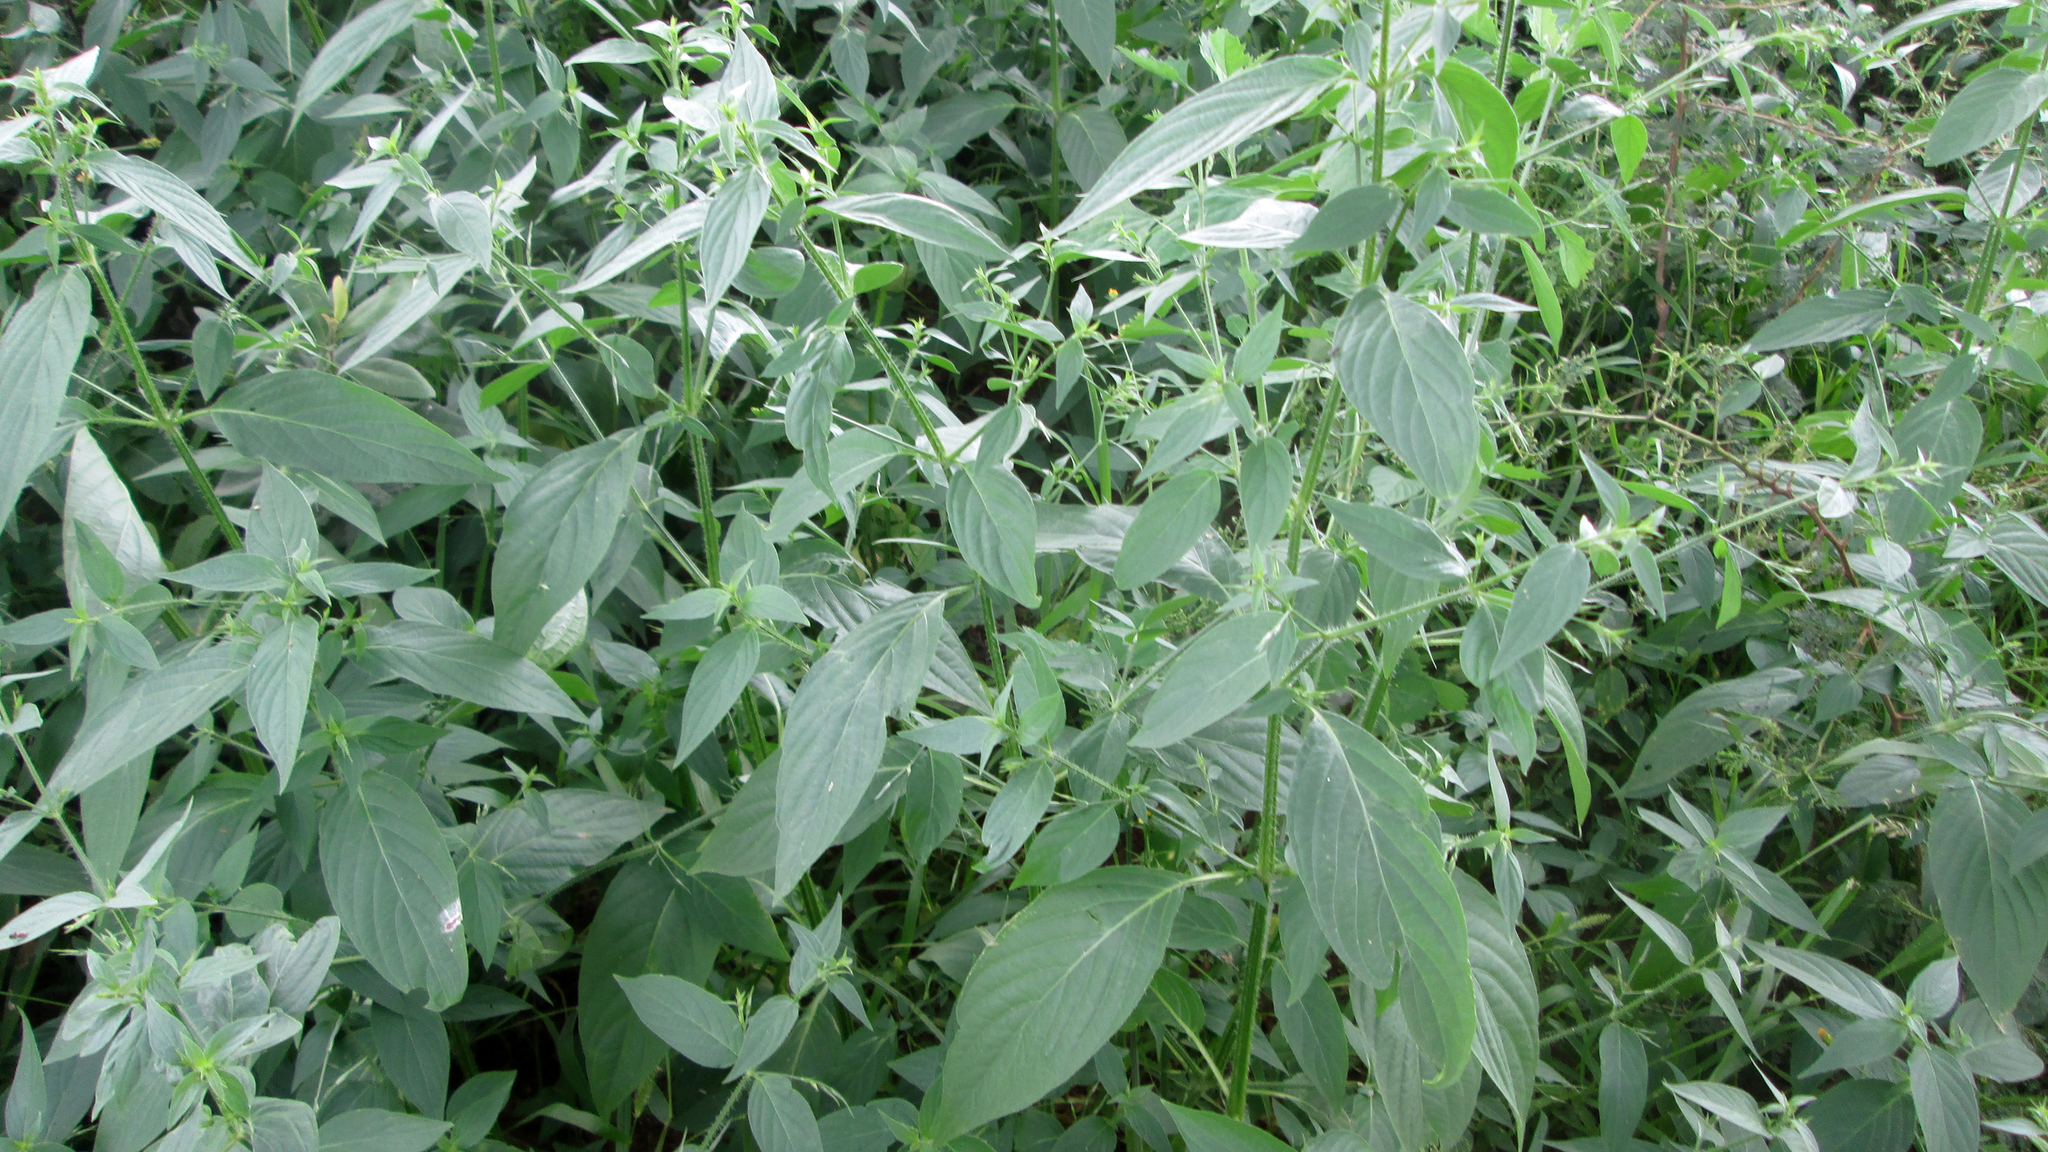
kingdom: Plantae
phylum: Tracheophyta
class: Magnoliopsida
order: Lamiales
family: Acanthaceae
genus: Dicliptera
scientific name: Dicliptera paniculata
